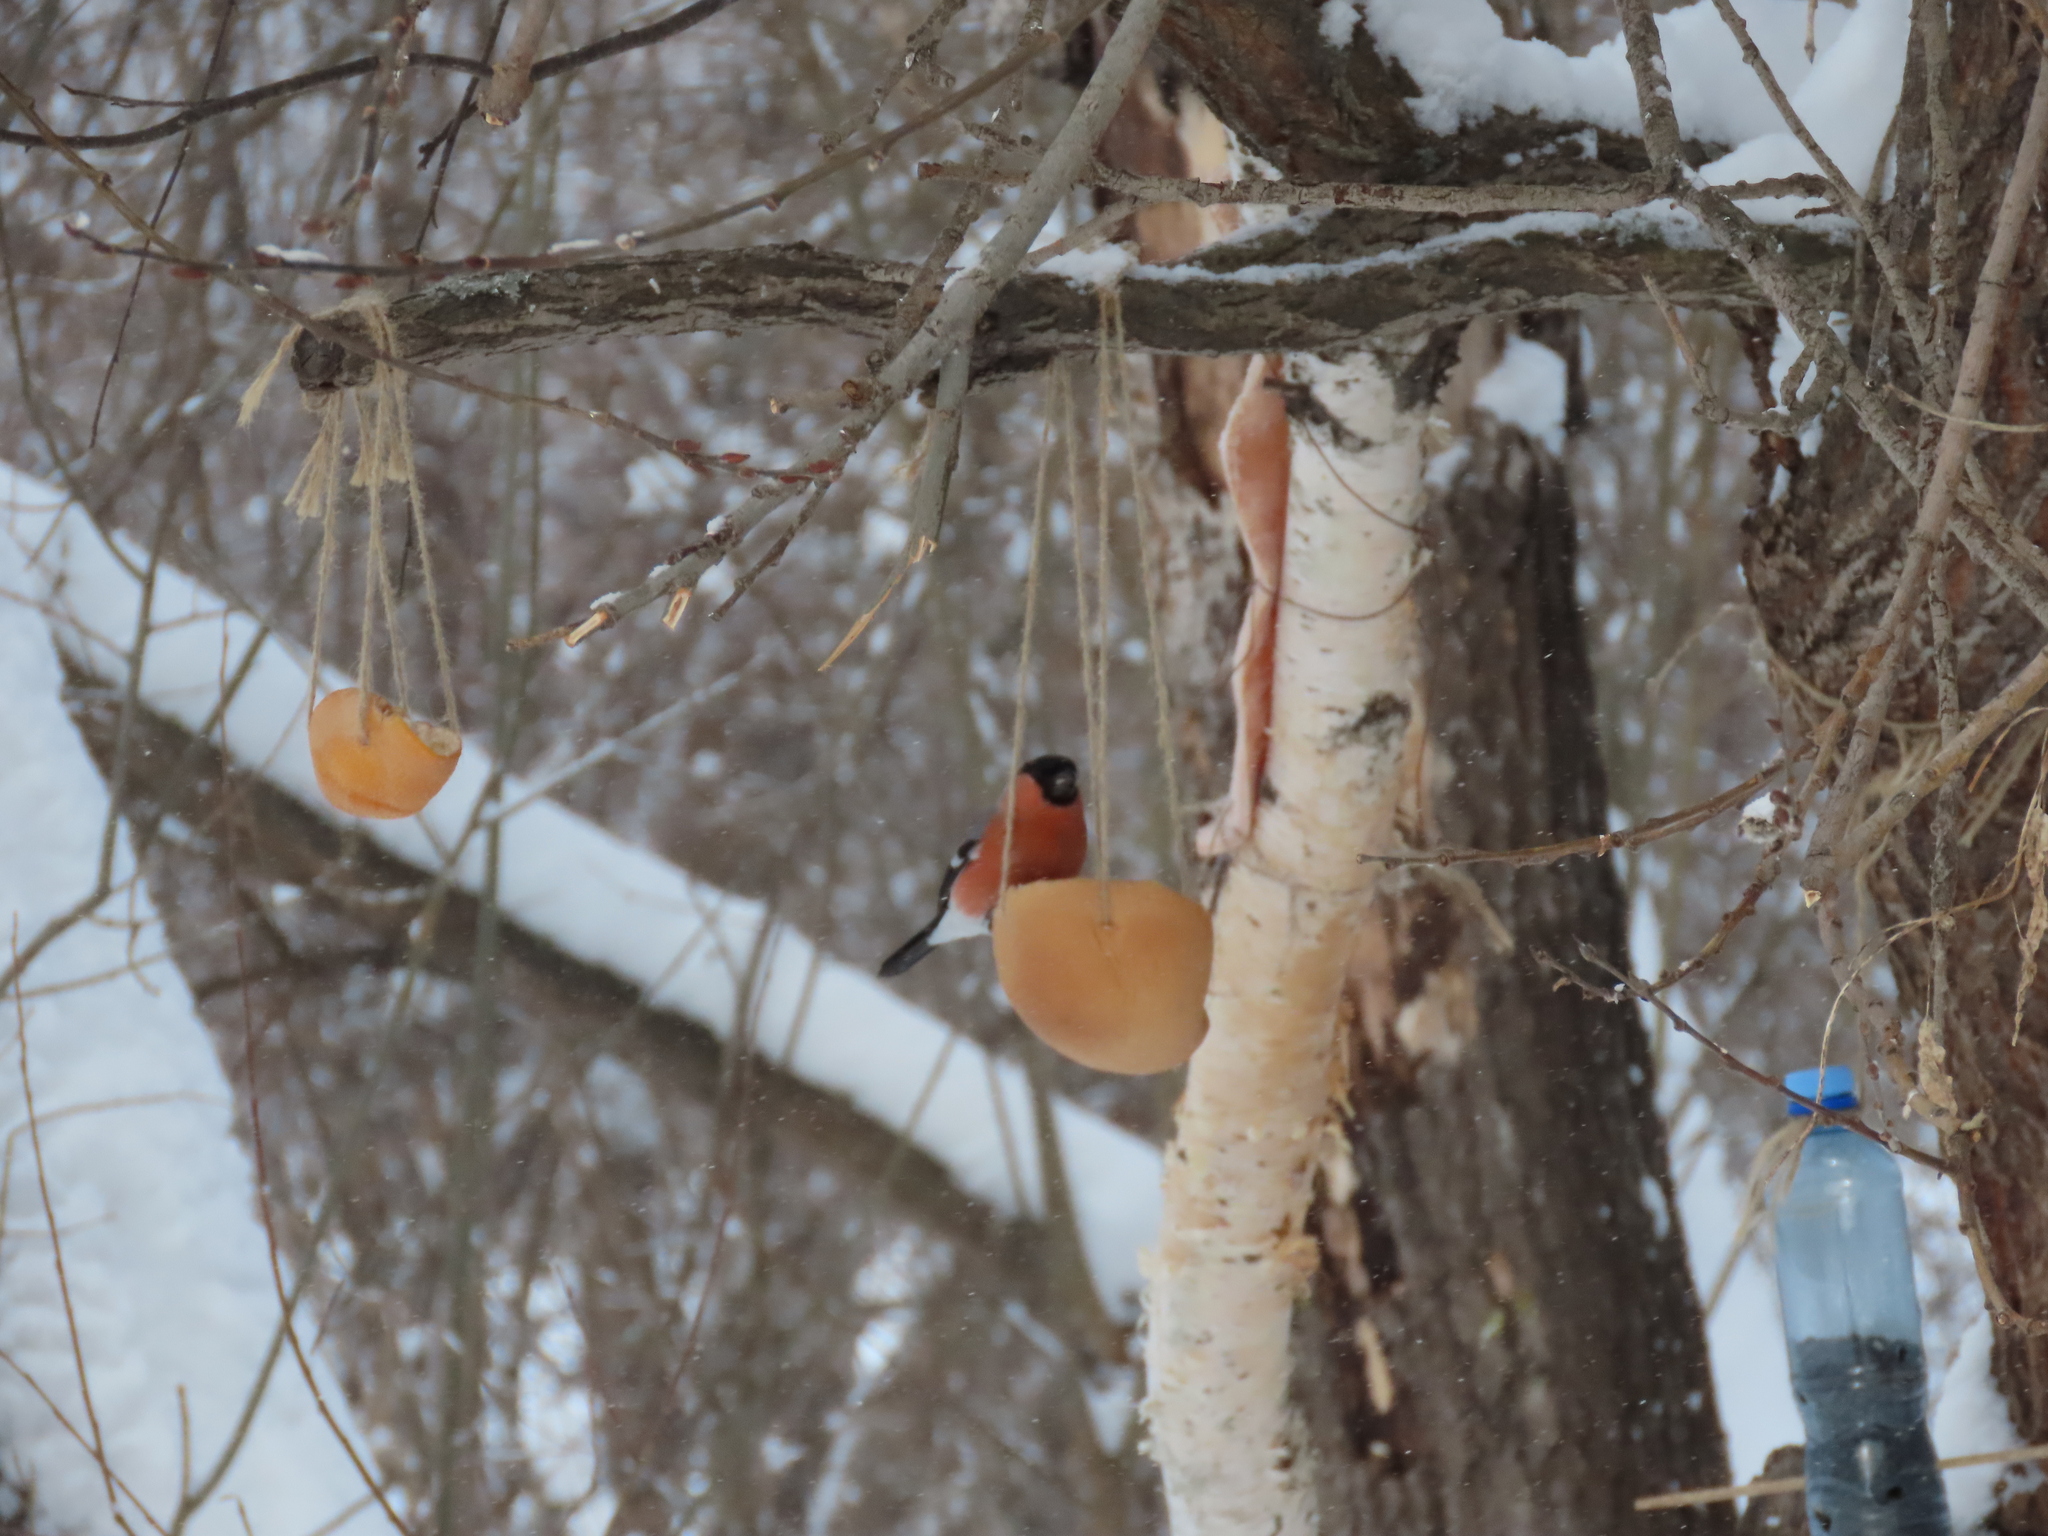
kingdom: Animalia
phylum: Chordata
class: Aves
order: Passeriformes
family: Fringillidae
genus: Pyrrhula
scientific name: Pyrrhula pyrrhula
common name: Eurasian bullfinch
